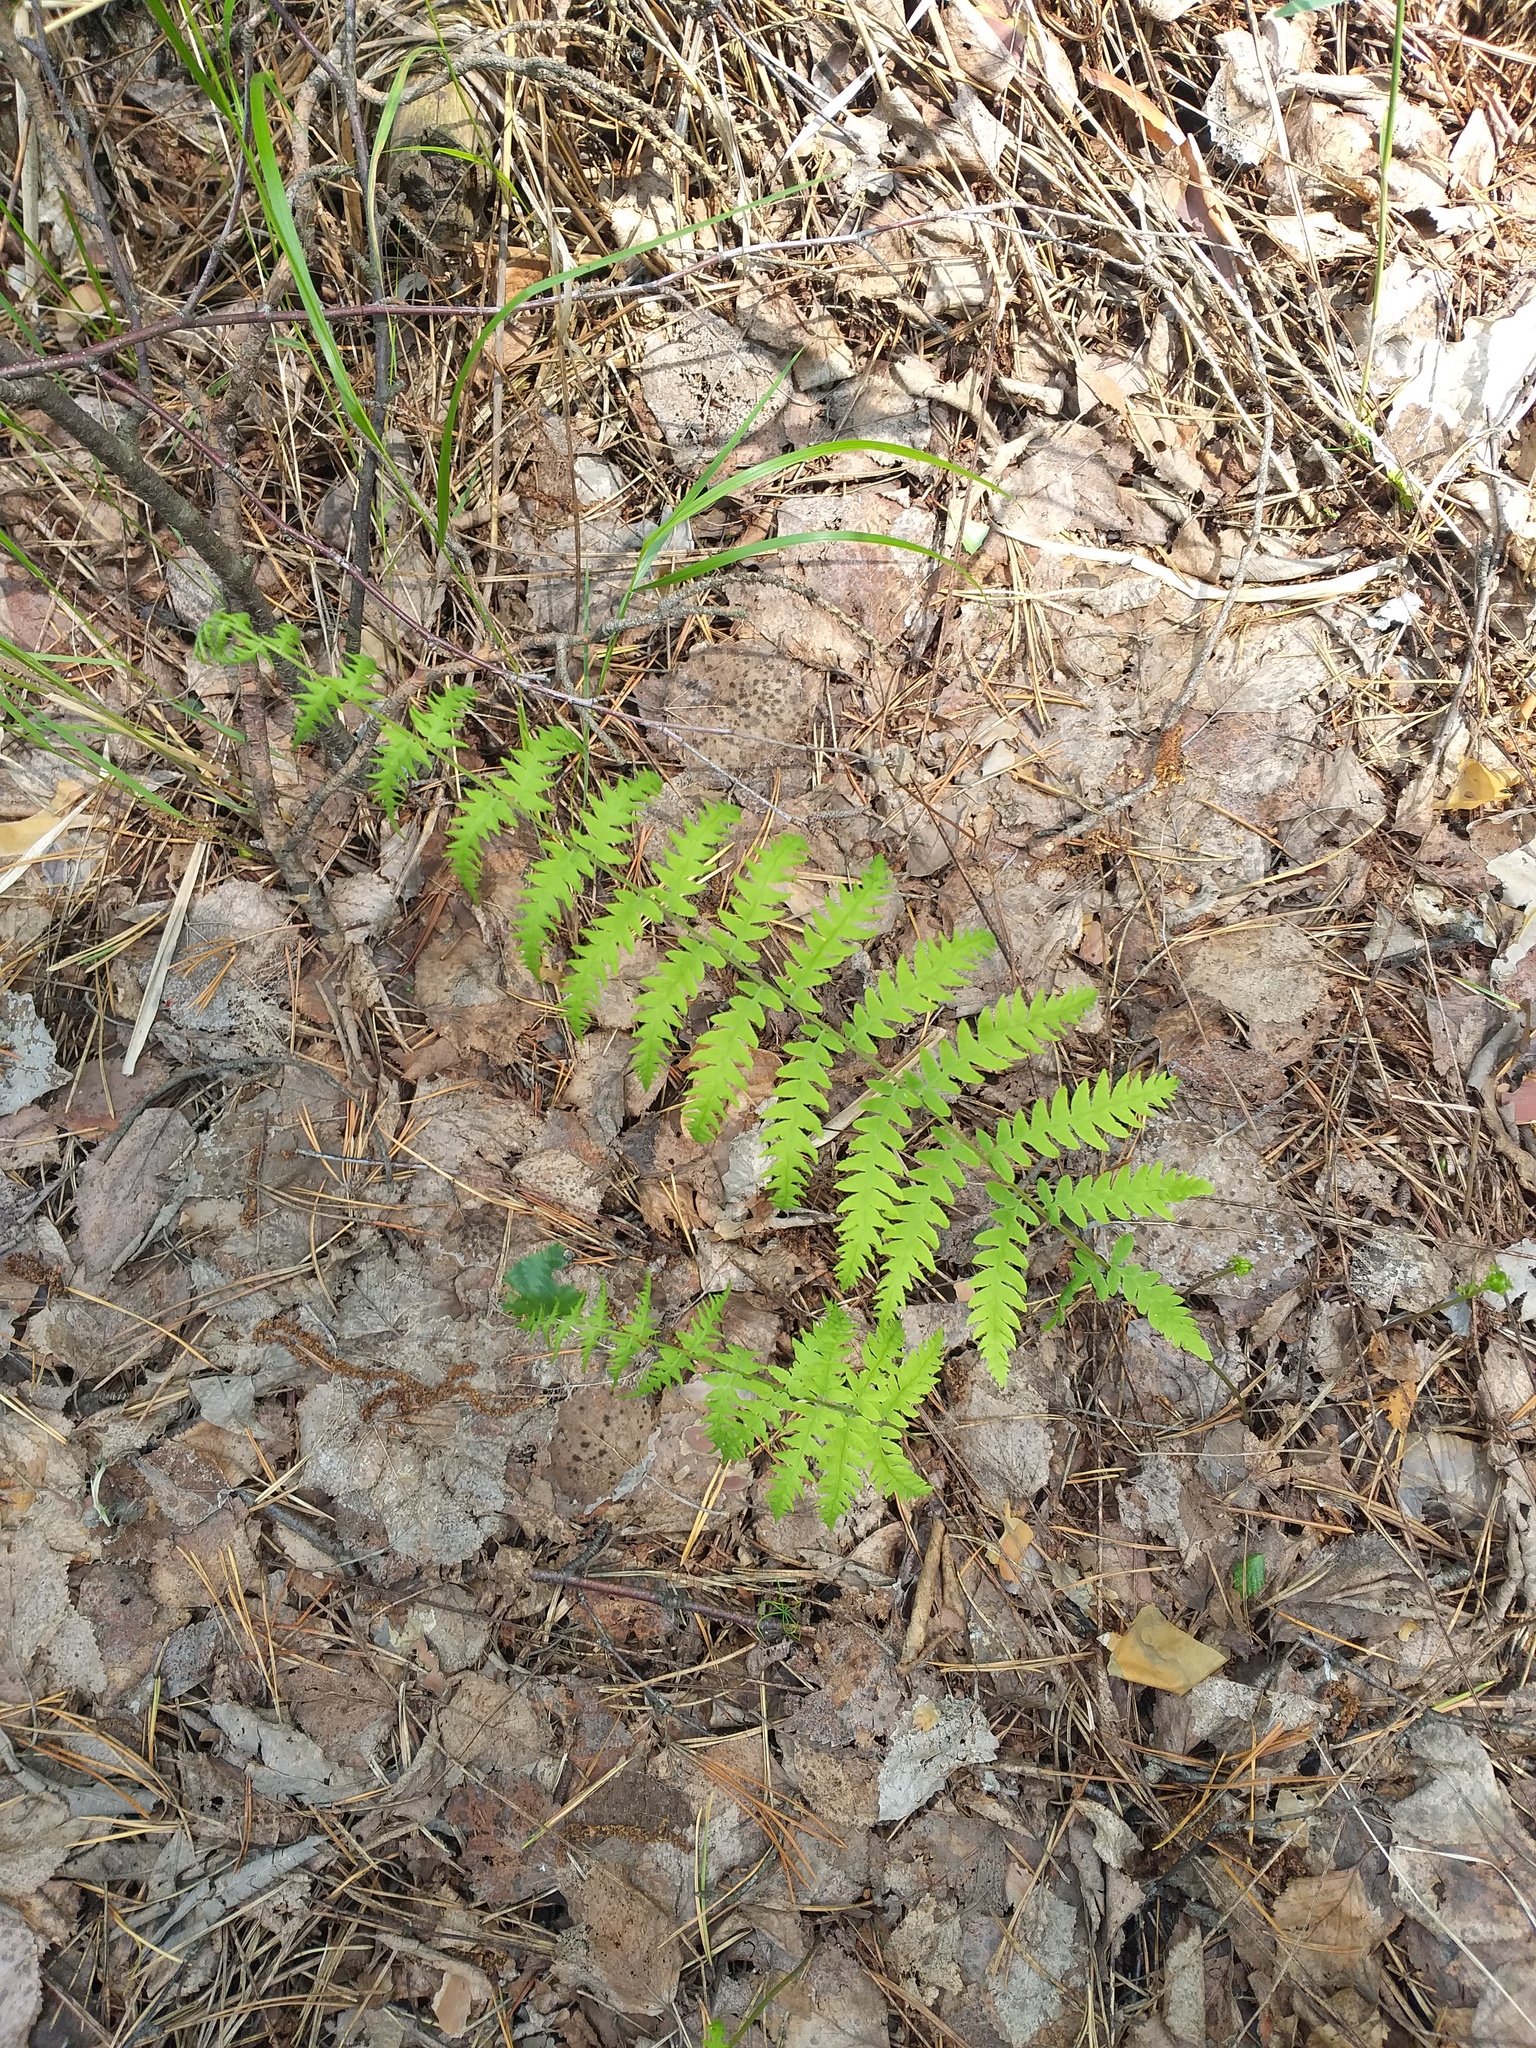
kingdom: Plantae
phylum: Tracheophyta
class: Polypodiopsida
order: Polypodiales
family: Thelypteridaceae
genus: Thelypteris
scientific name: Thelypteris palustris
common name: Marsh fern
